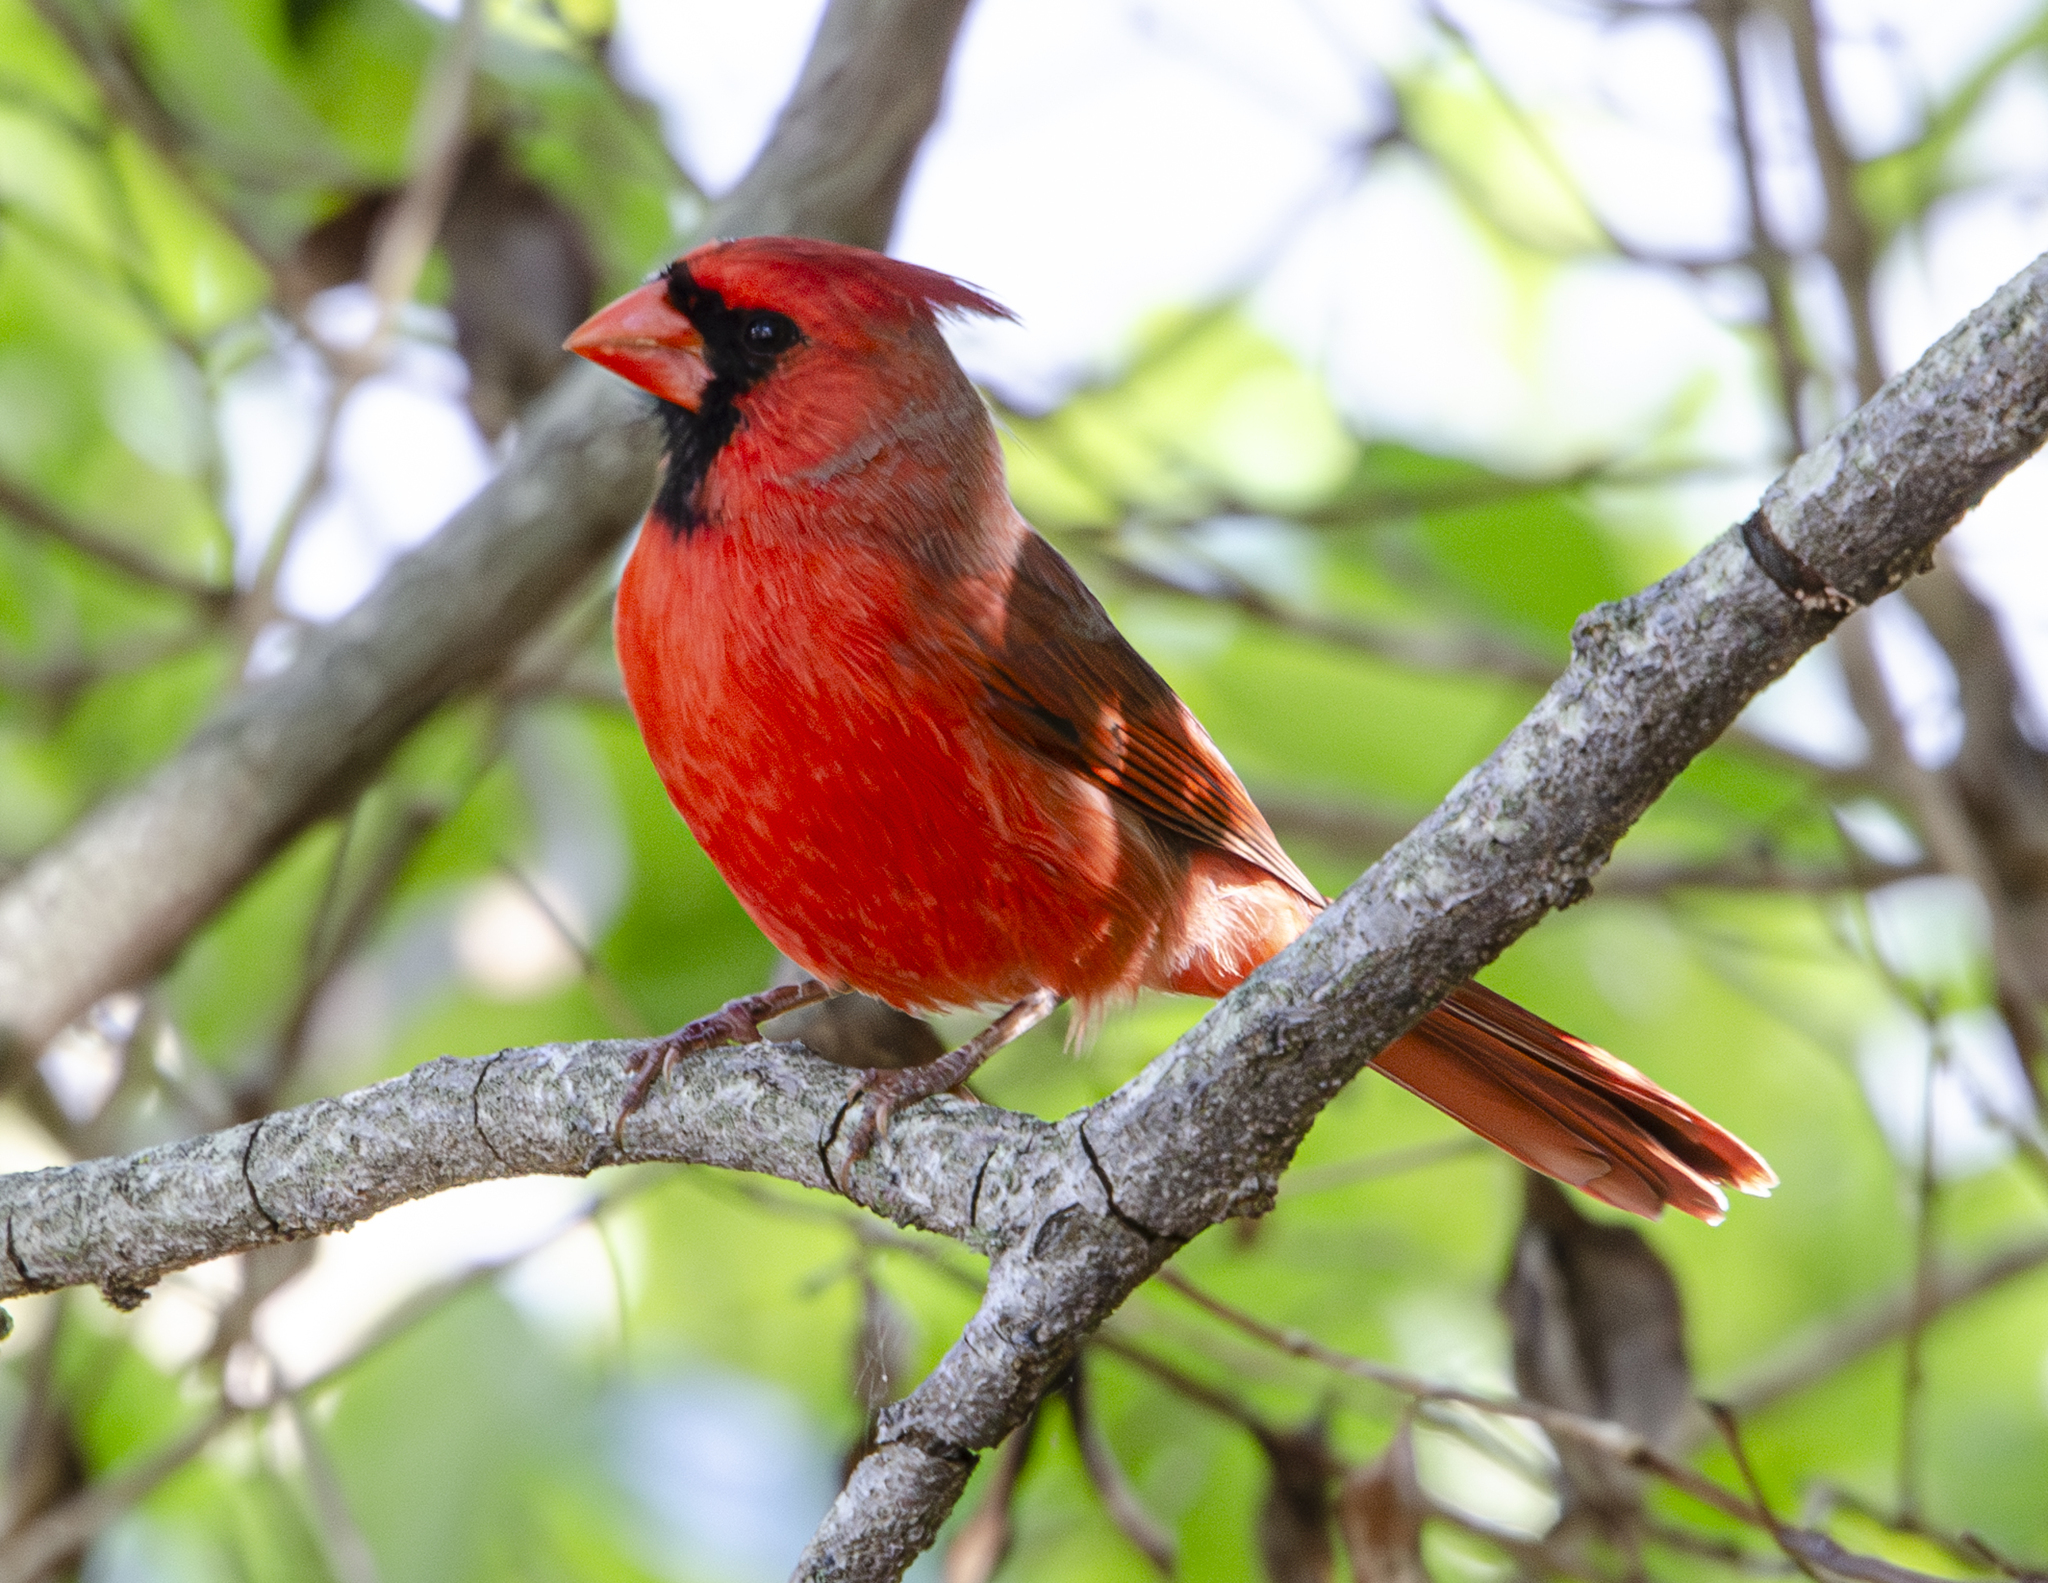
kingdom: Animalia
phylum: Chordata
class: Aves
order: Passeriformes
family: Cardinalidae
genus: Cardinalis
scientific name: Cardinalis cardinalis
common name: Northern cardinal
